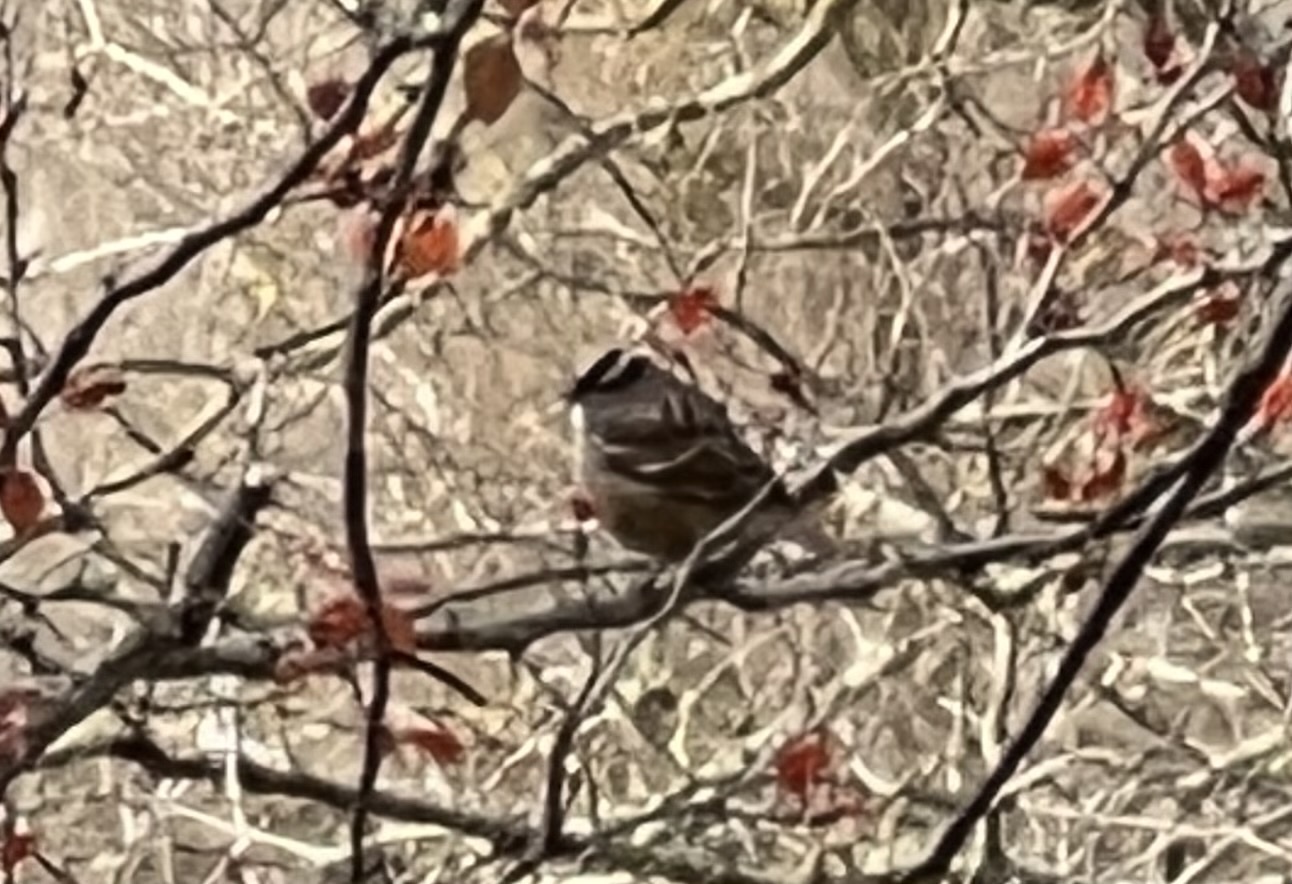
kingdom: Animalia
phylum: Chordata
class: Aves
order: Passeriformes
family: Passerellidae
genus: Zonotrichia
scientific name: Zonotrichia leucophrys
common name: White-crowned sparrow
